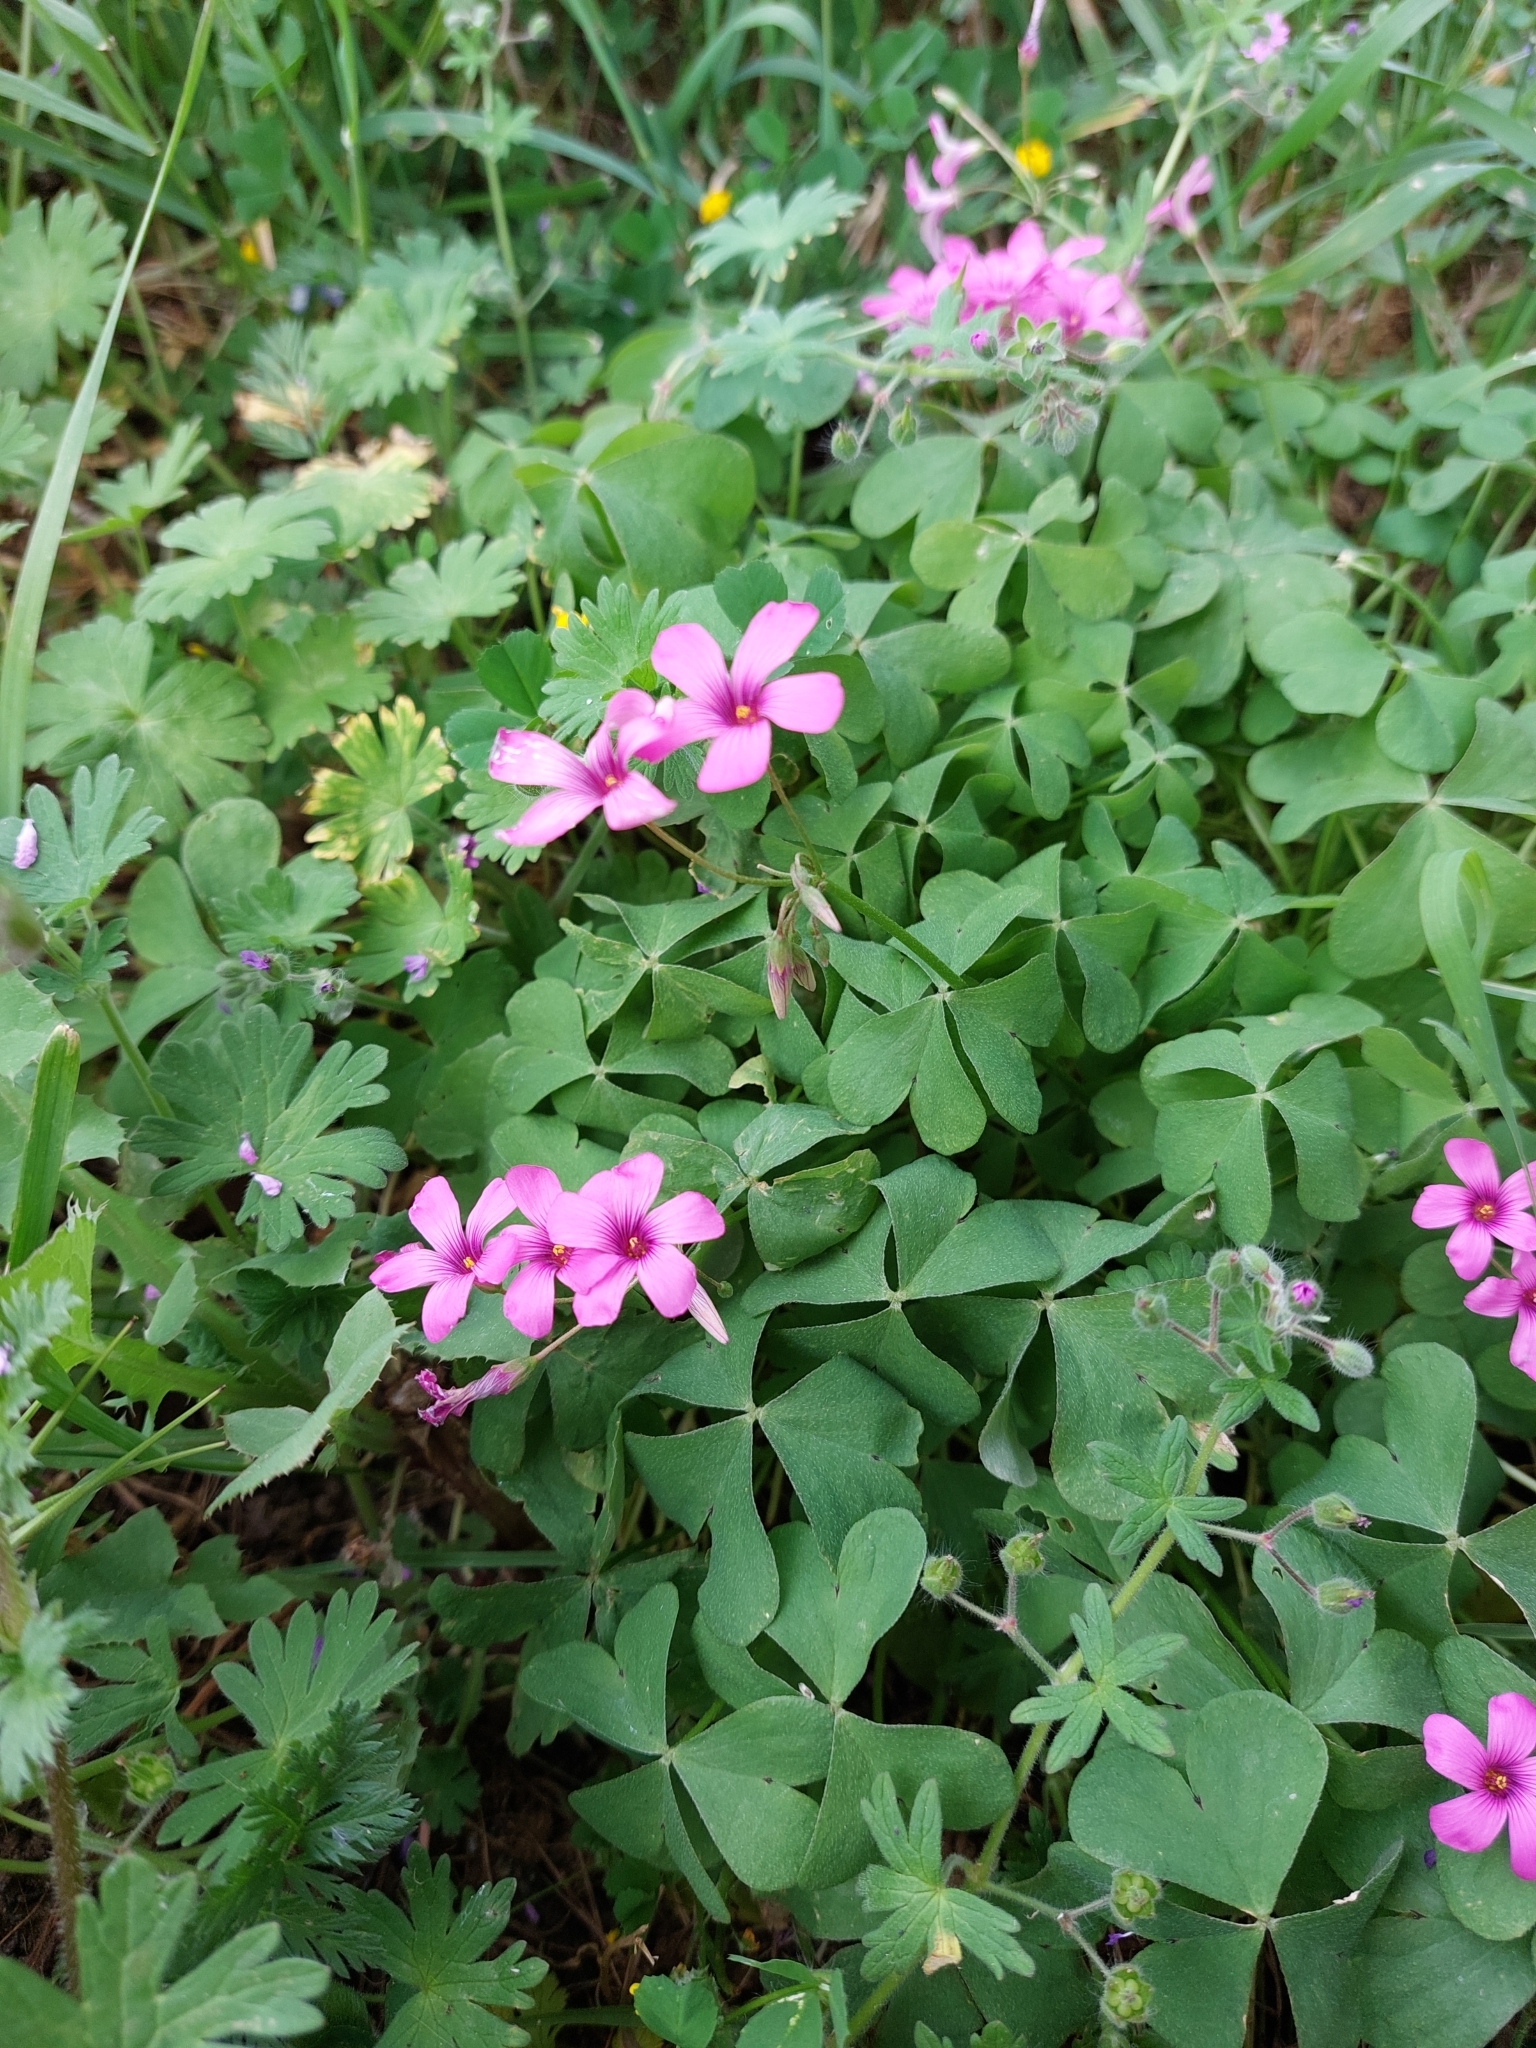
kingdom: Plantae
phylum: Tracheophyta
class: Magnoliopsida
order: Oxalidales
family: Oxalidaceae
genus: Oxalis
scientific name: Oxalis articulata
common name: Pink-sorrel
